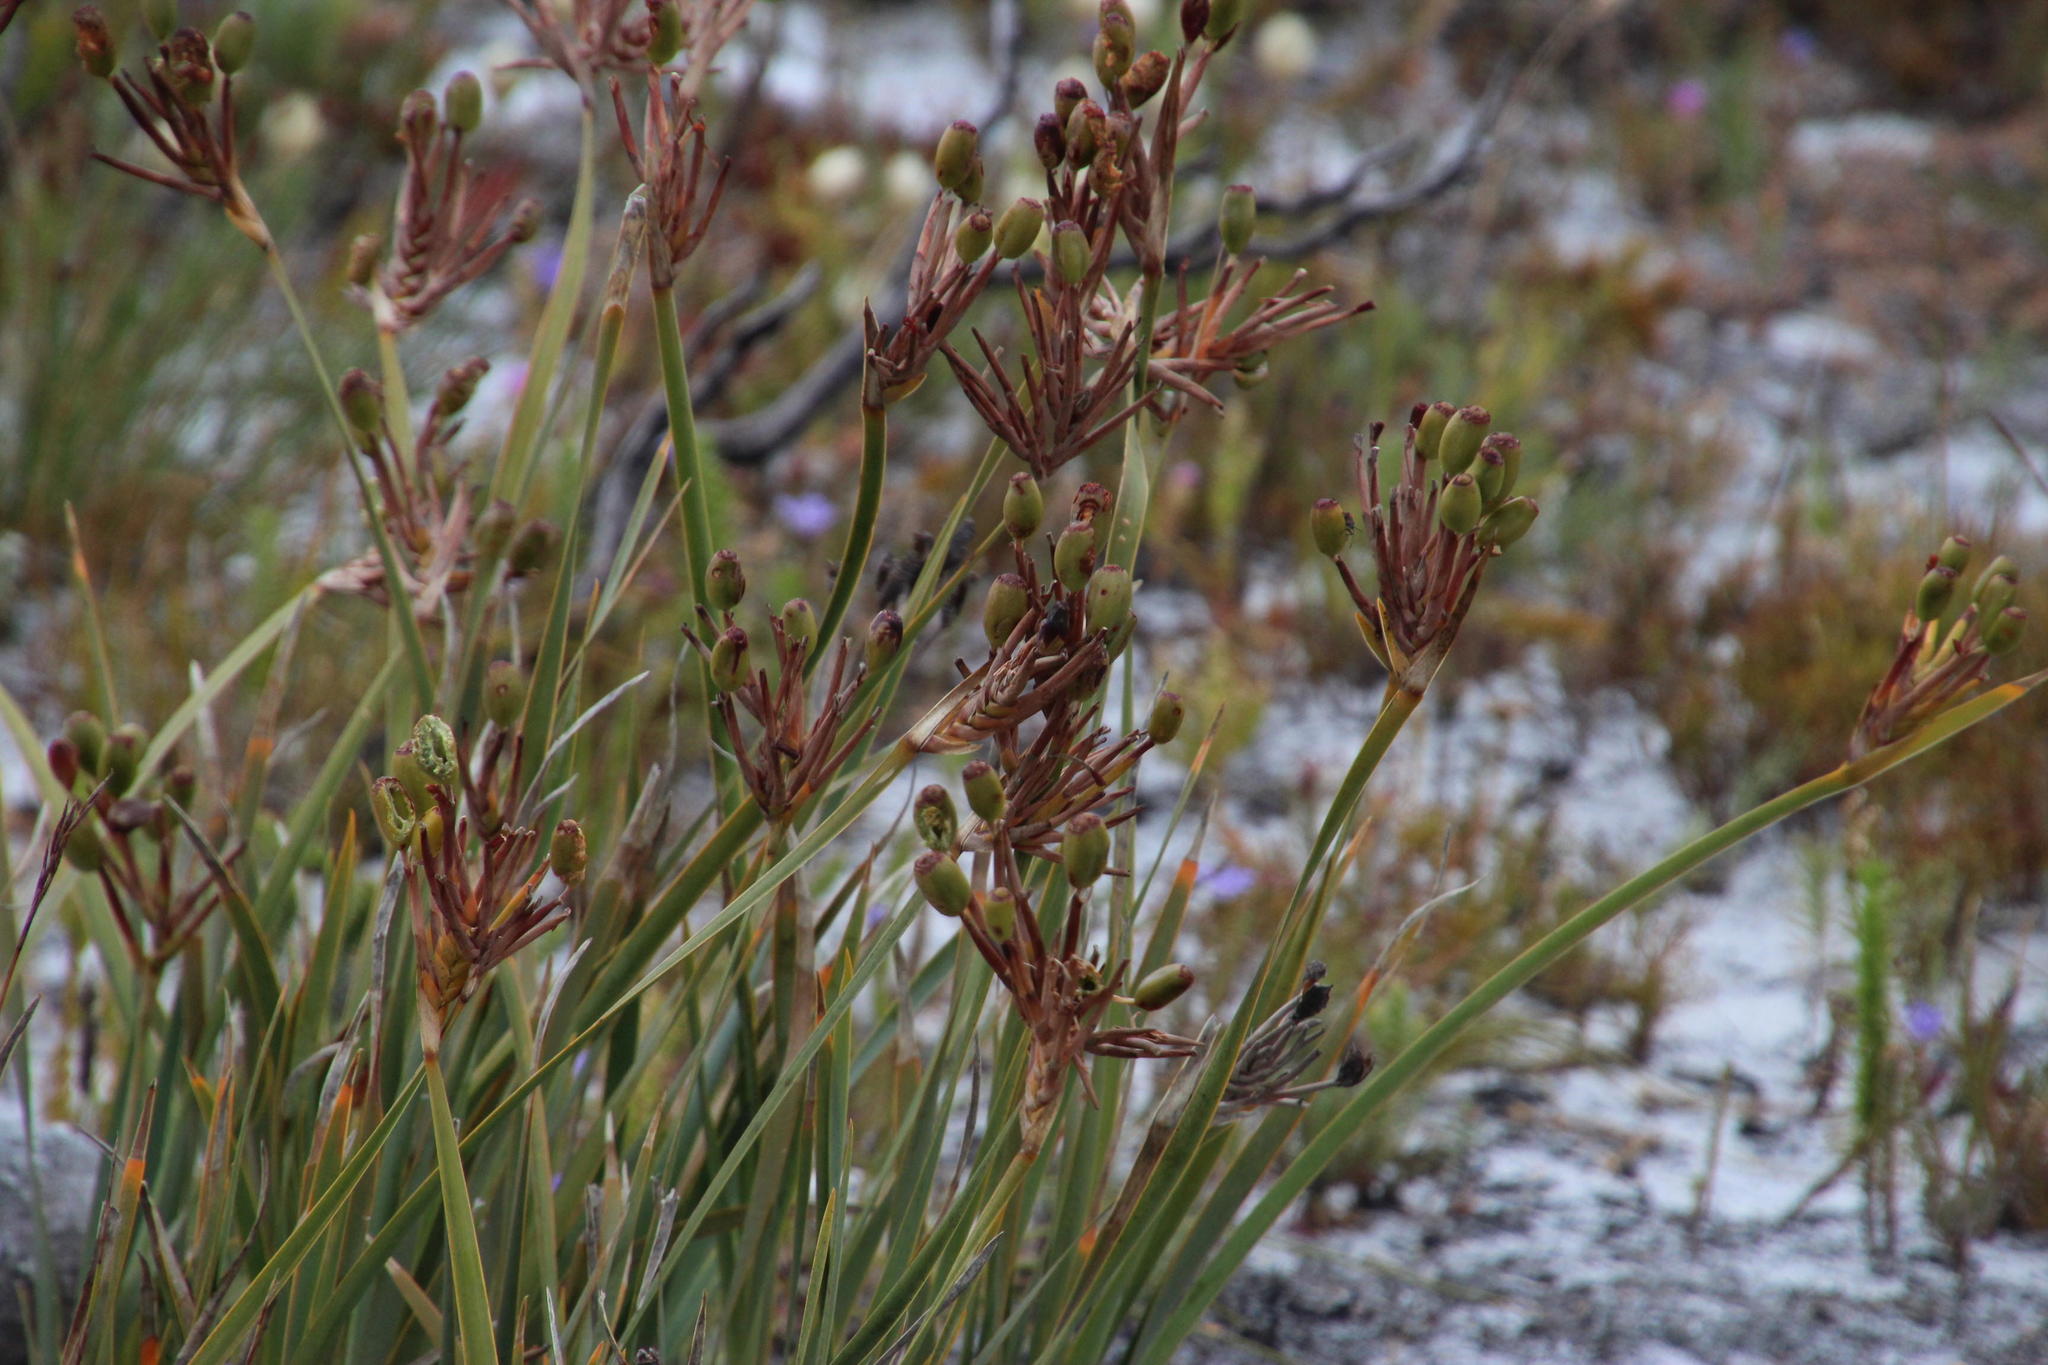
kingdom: Plantae
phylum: Tracheophyta
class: Liliopsida
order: Asparagales
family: Iridaceae
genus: Bobartia
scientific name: Bobartia gladiata
